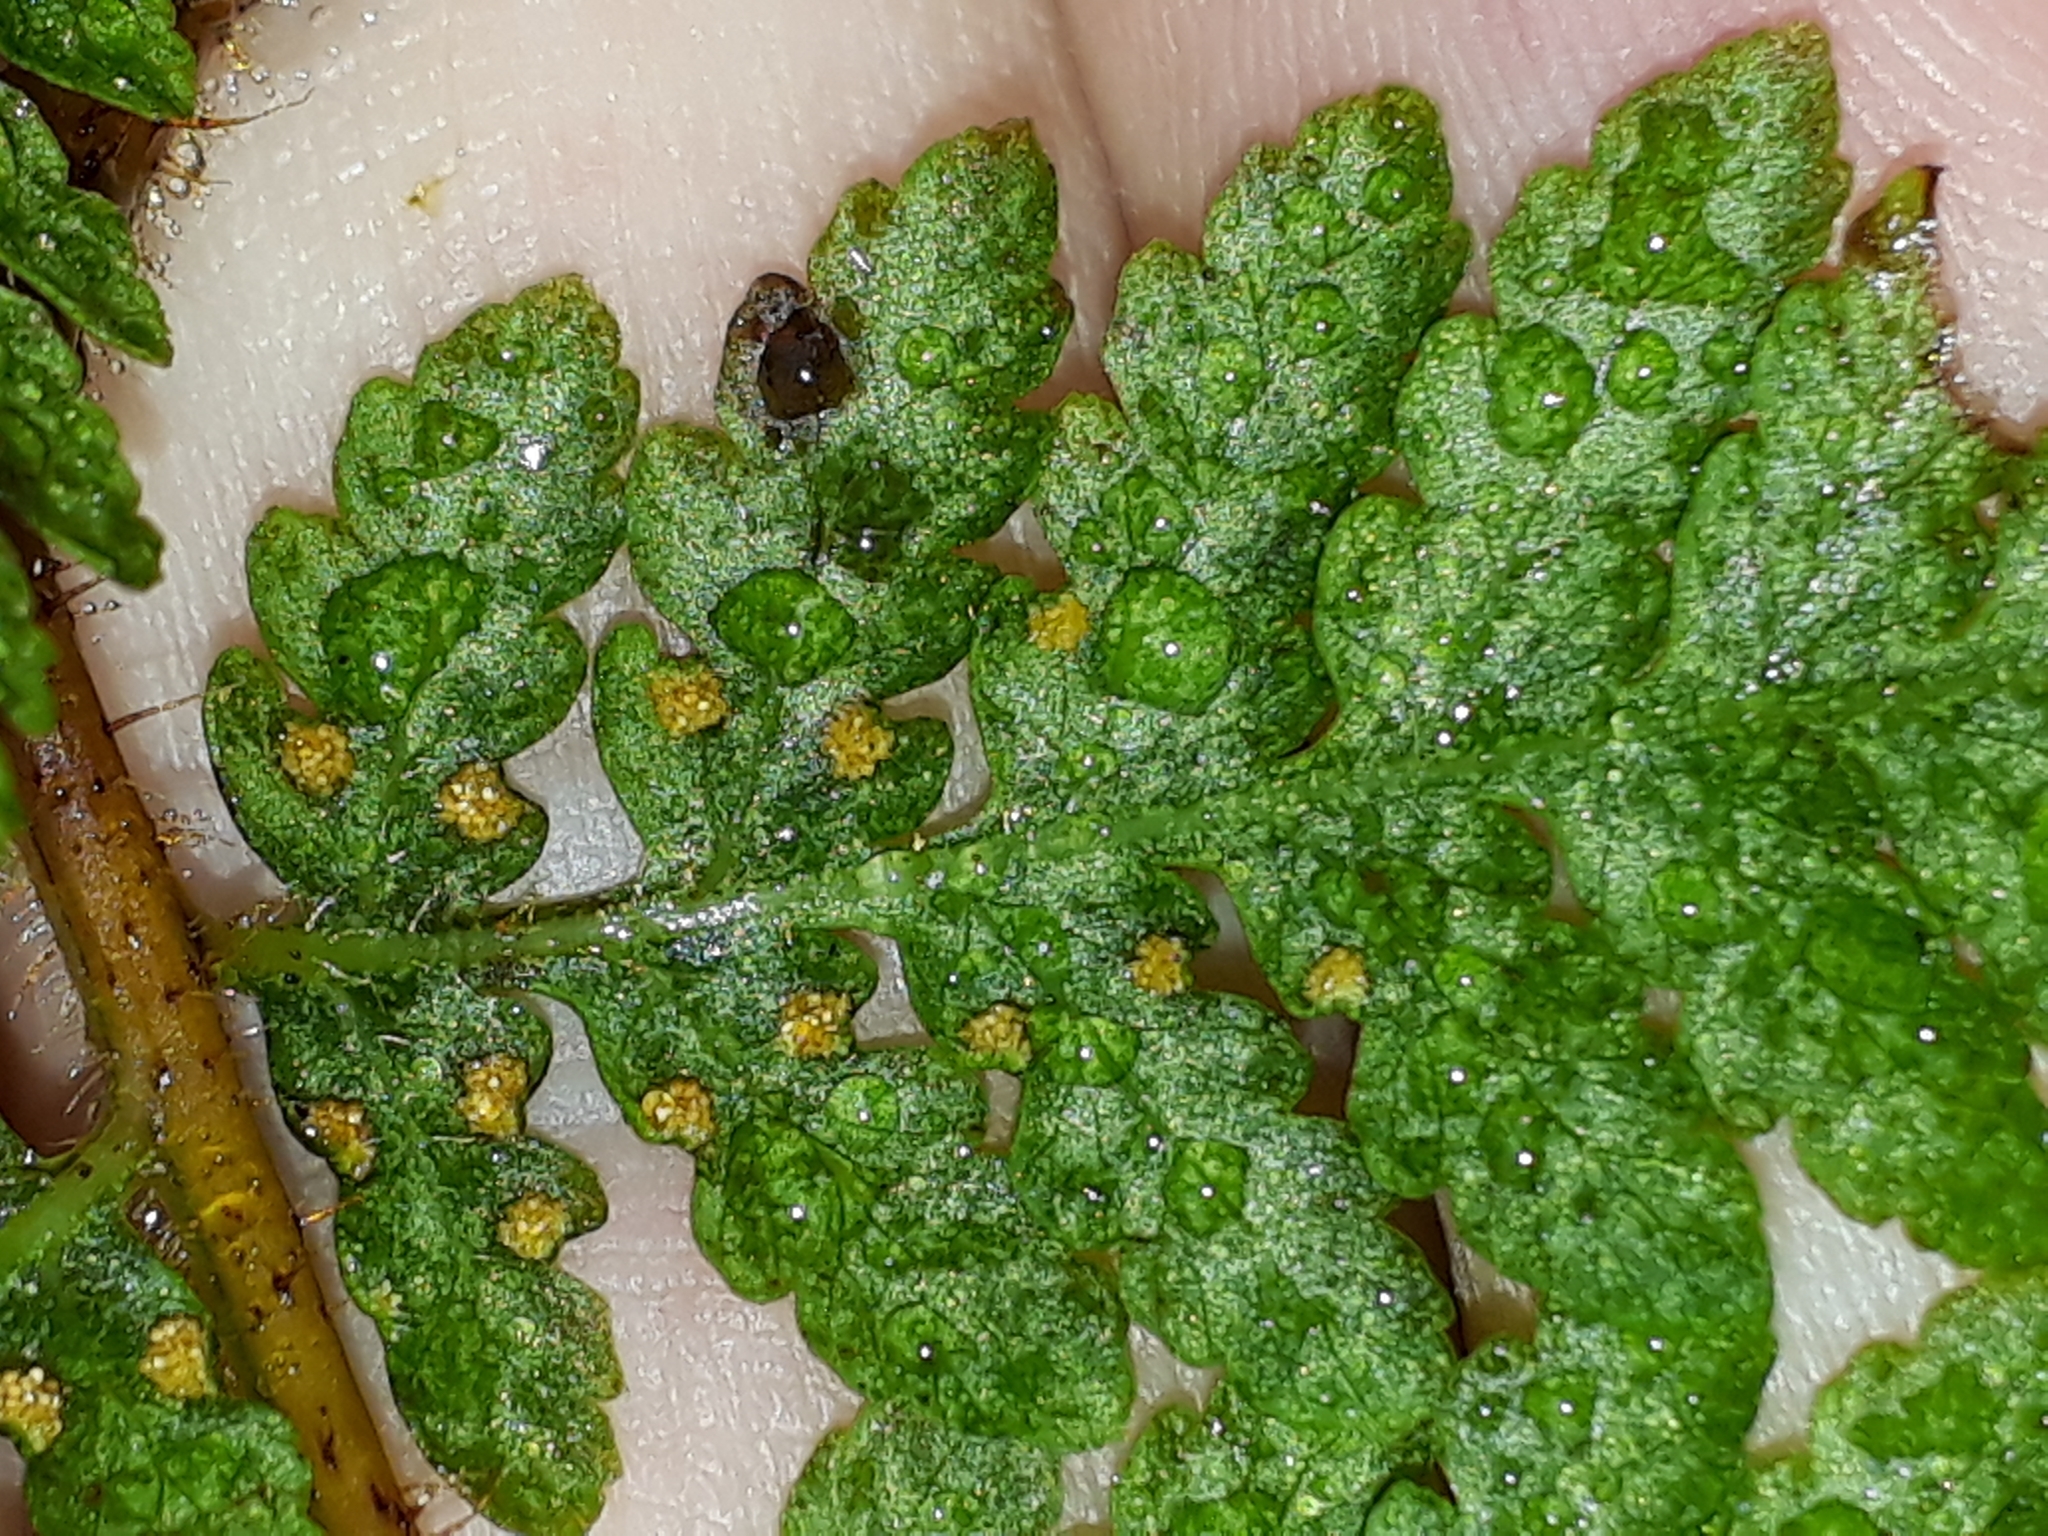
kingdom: Plantae
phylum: Tracheophyta
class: Polypodiopsida
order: Polypodiales
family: Dennstaedtiaceae
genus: Hypolepis
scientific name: Hypolepis ambigua
